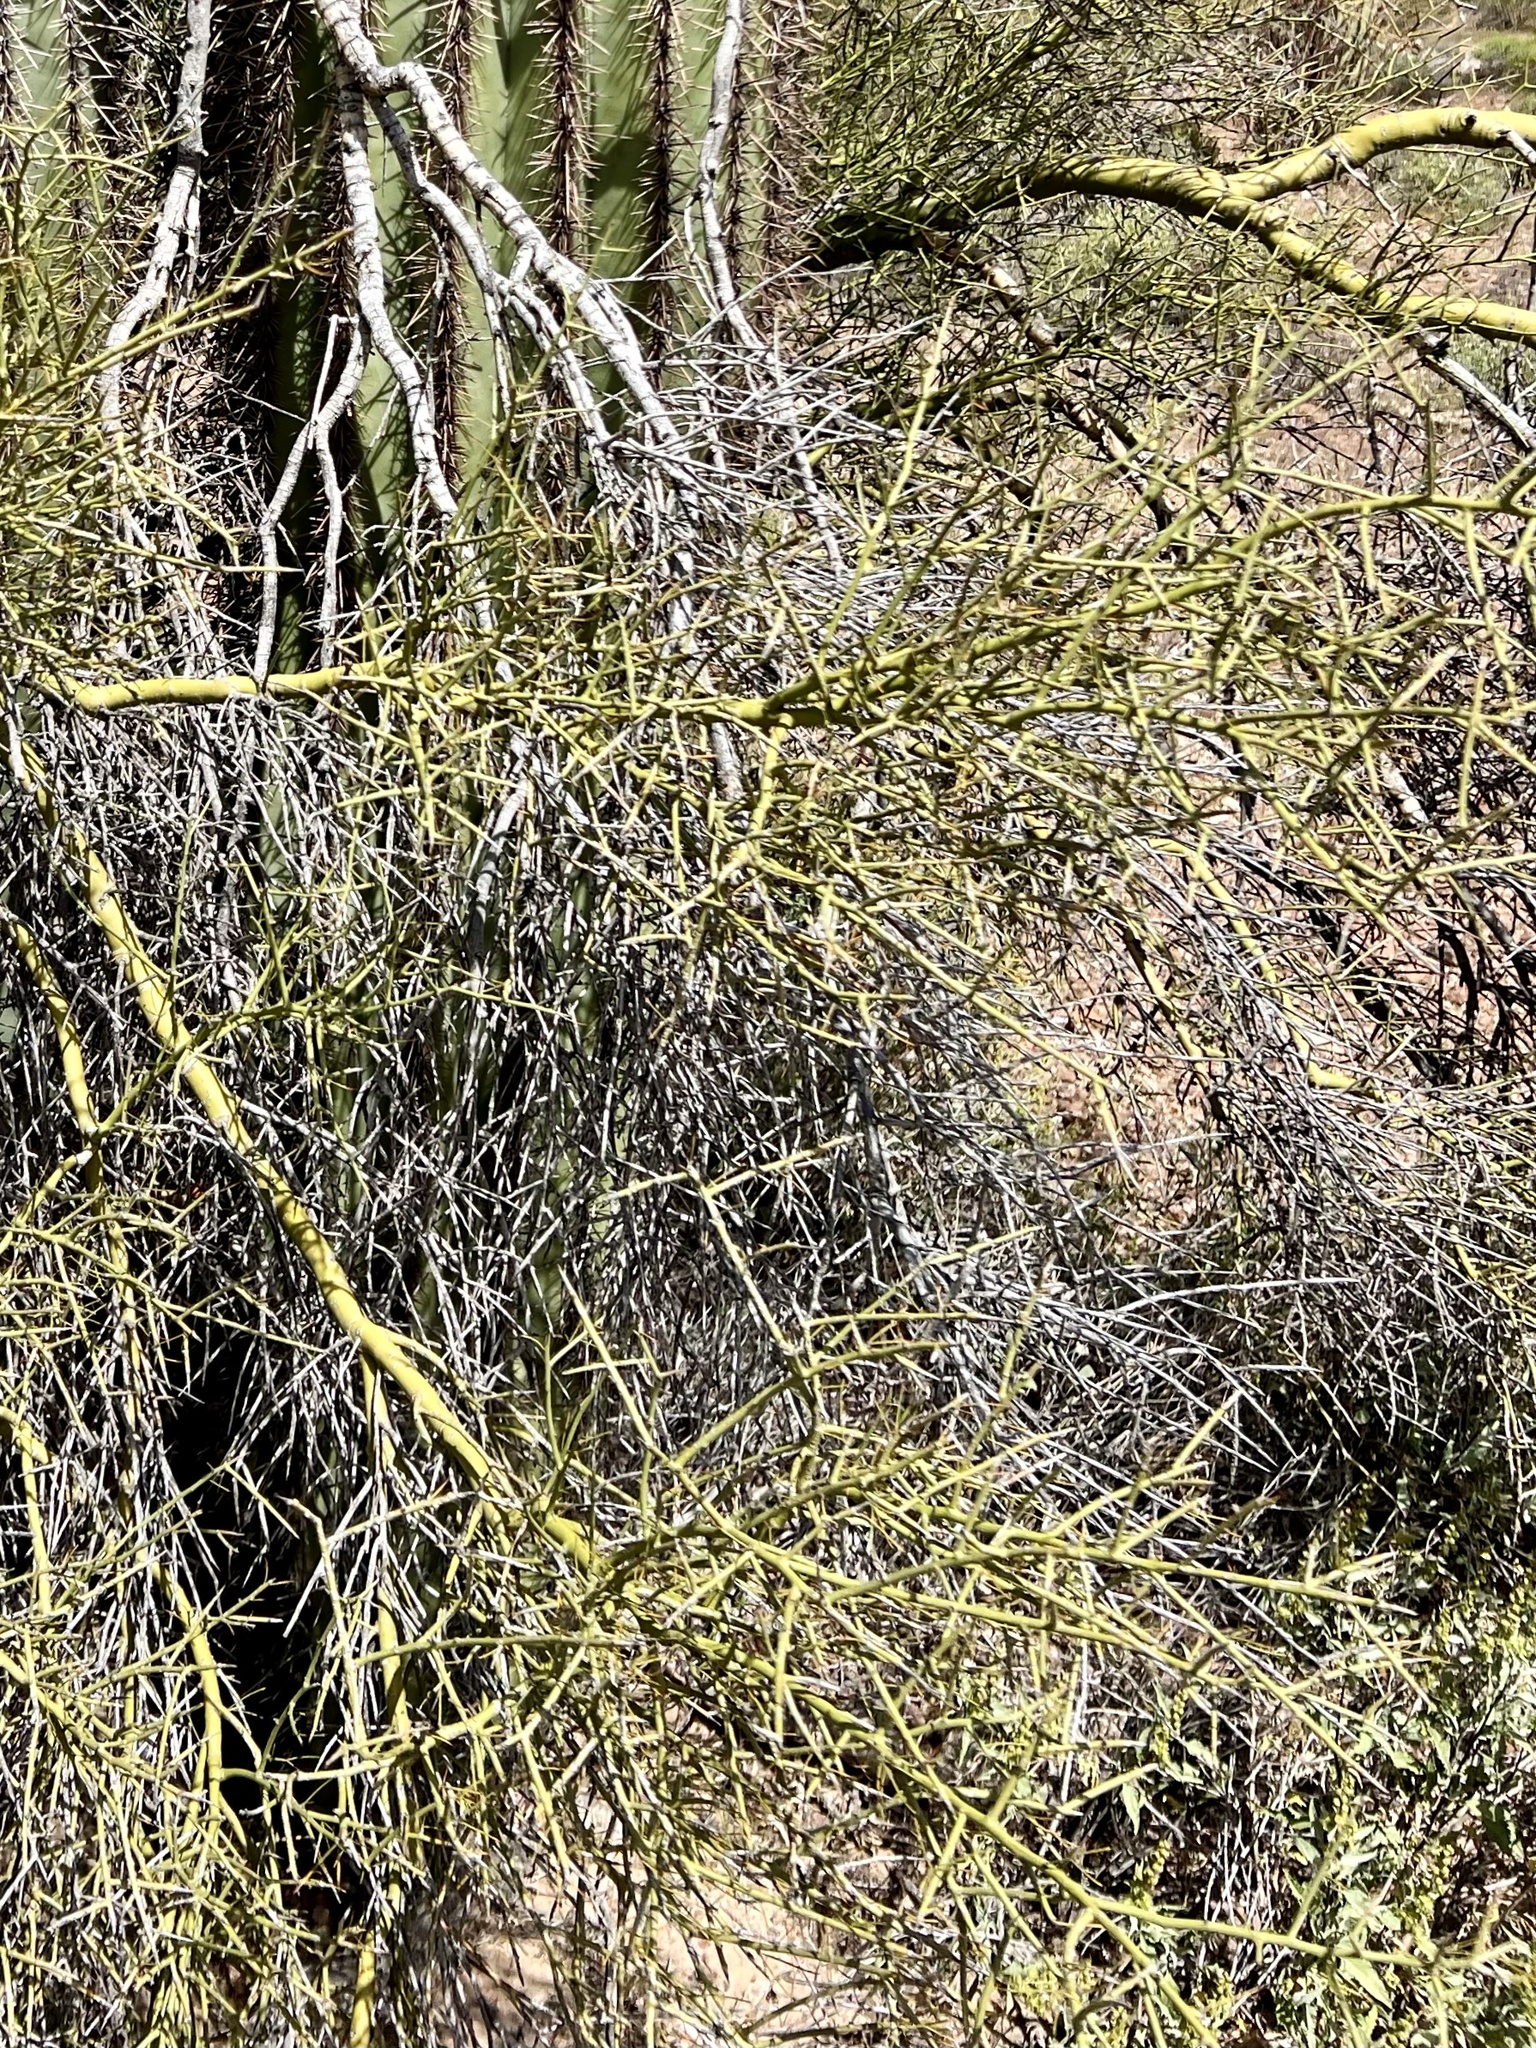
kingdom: Plantae
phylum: Tracheophyta
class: Magnoliopsida
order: Fabales
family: Fabaceae
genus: Parkinsonia
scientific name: Parkinsonia microphylla
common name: Yellow paloverde
